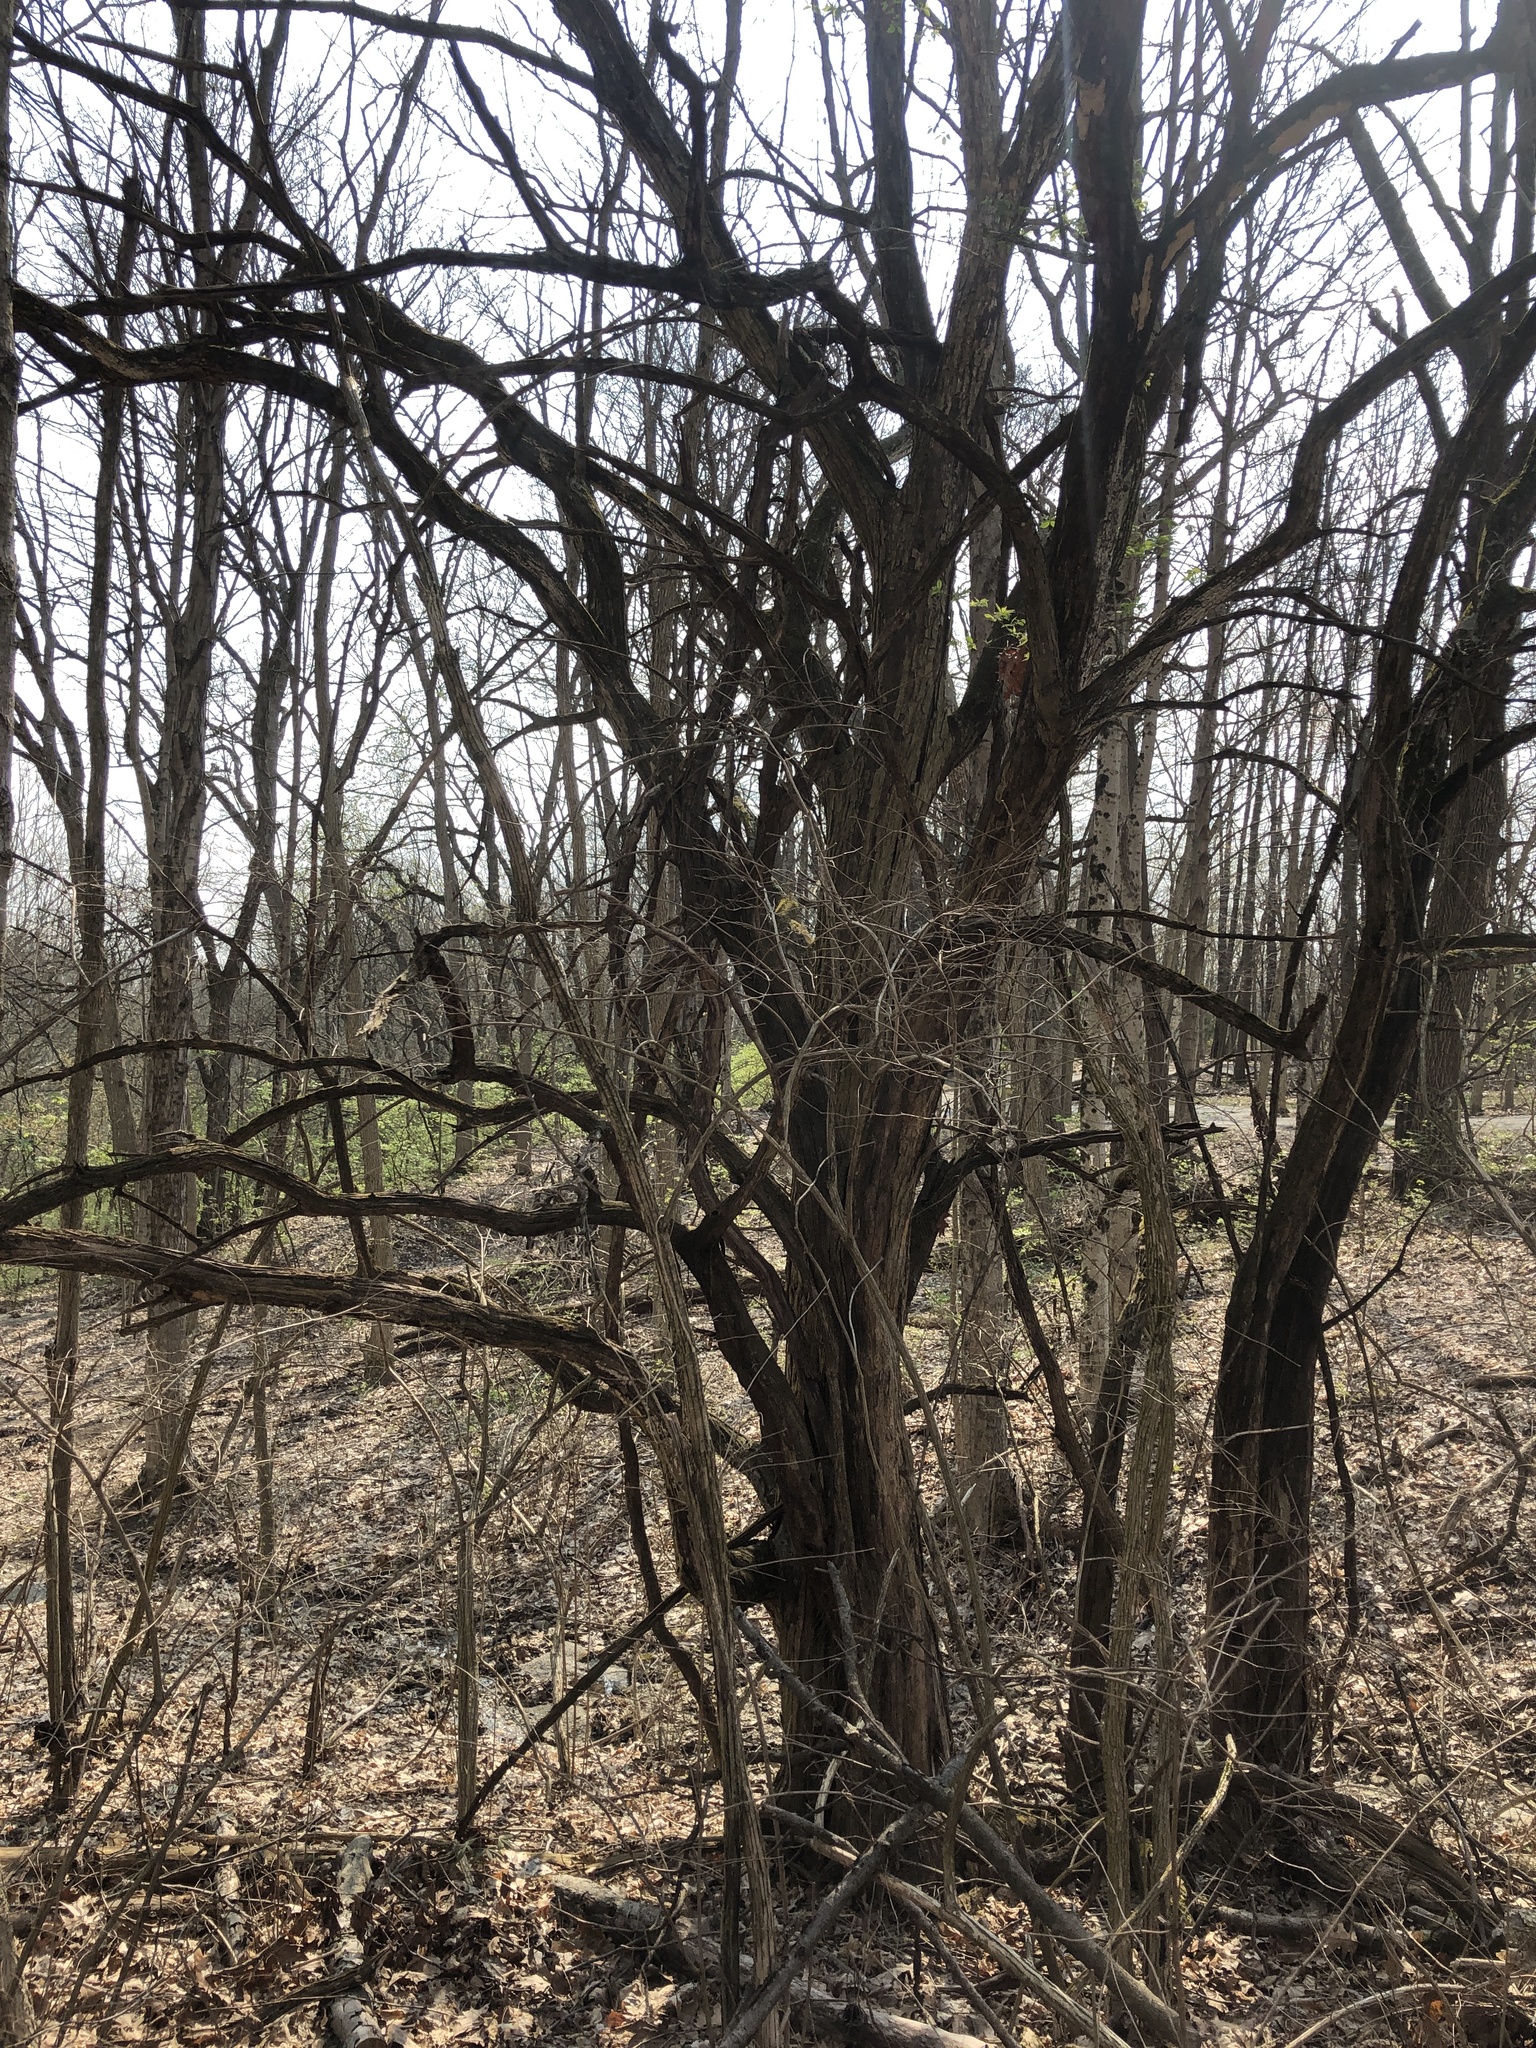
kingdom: Plantae
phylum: Tracheophyta
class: Magnoliopsida
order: Rosales
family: Moraceae
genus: Maclura
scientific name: Maclura pomifera
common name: Osage-orange
